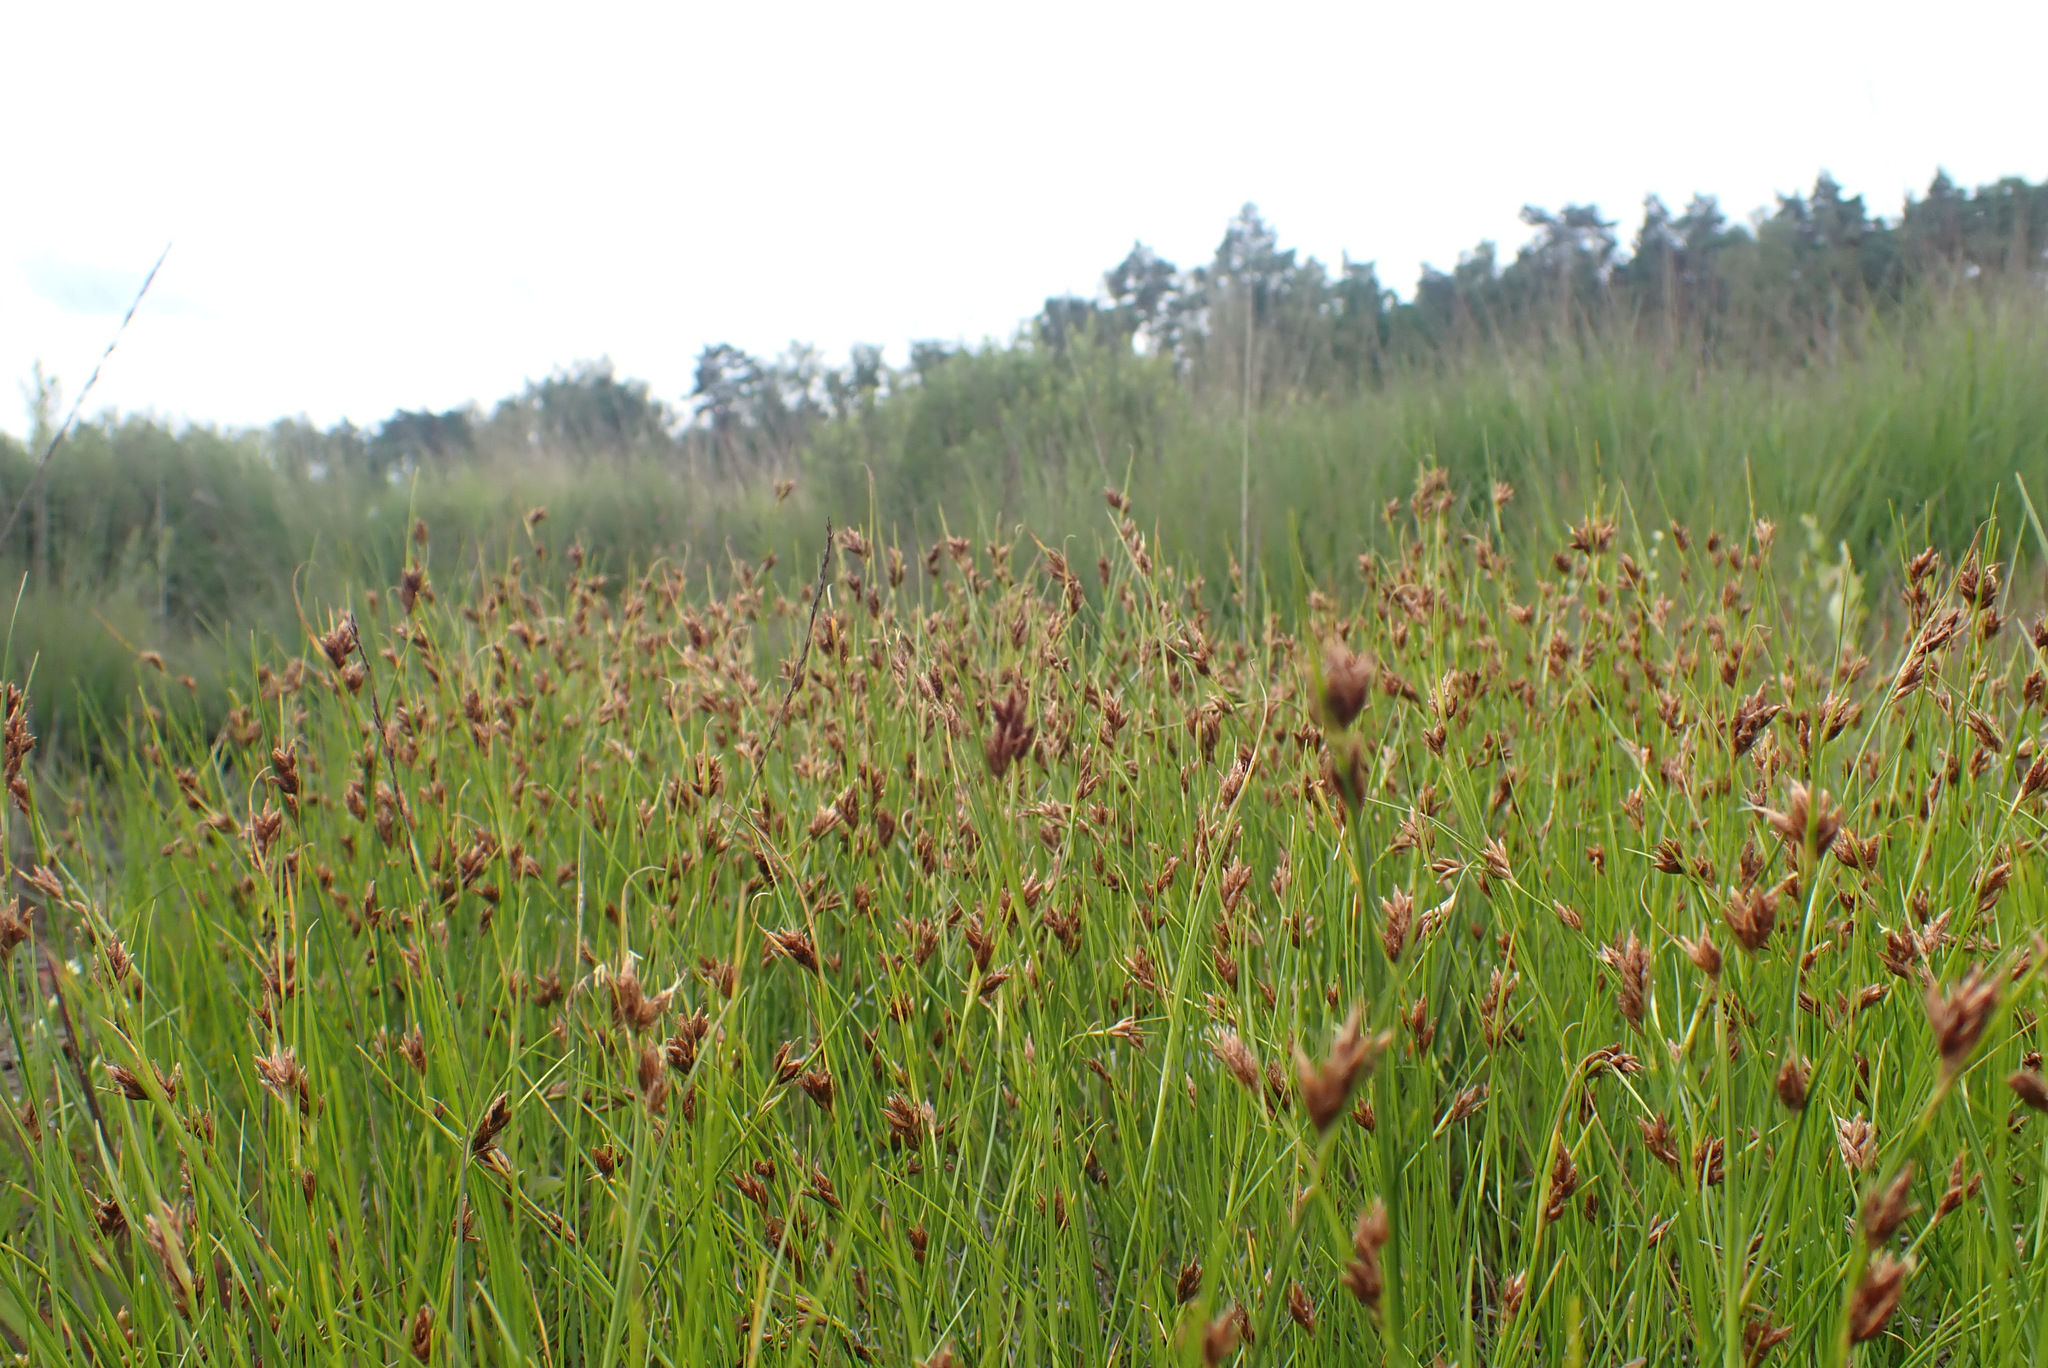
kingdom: Plantae
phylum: Tracheophyta
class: Liliopsida
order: Poales
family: Cyperaceae
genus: Rhynchospora
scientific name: Rhynchospora fusca
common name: Brown beak-sedge
